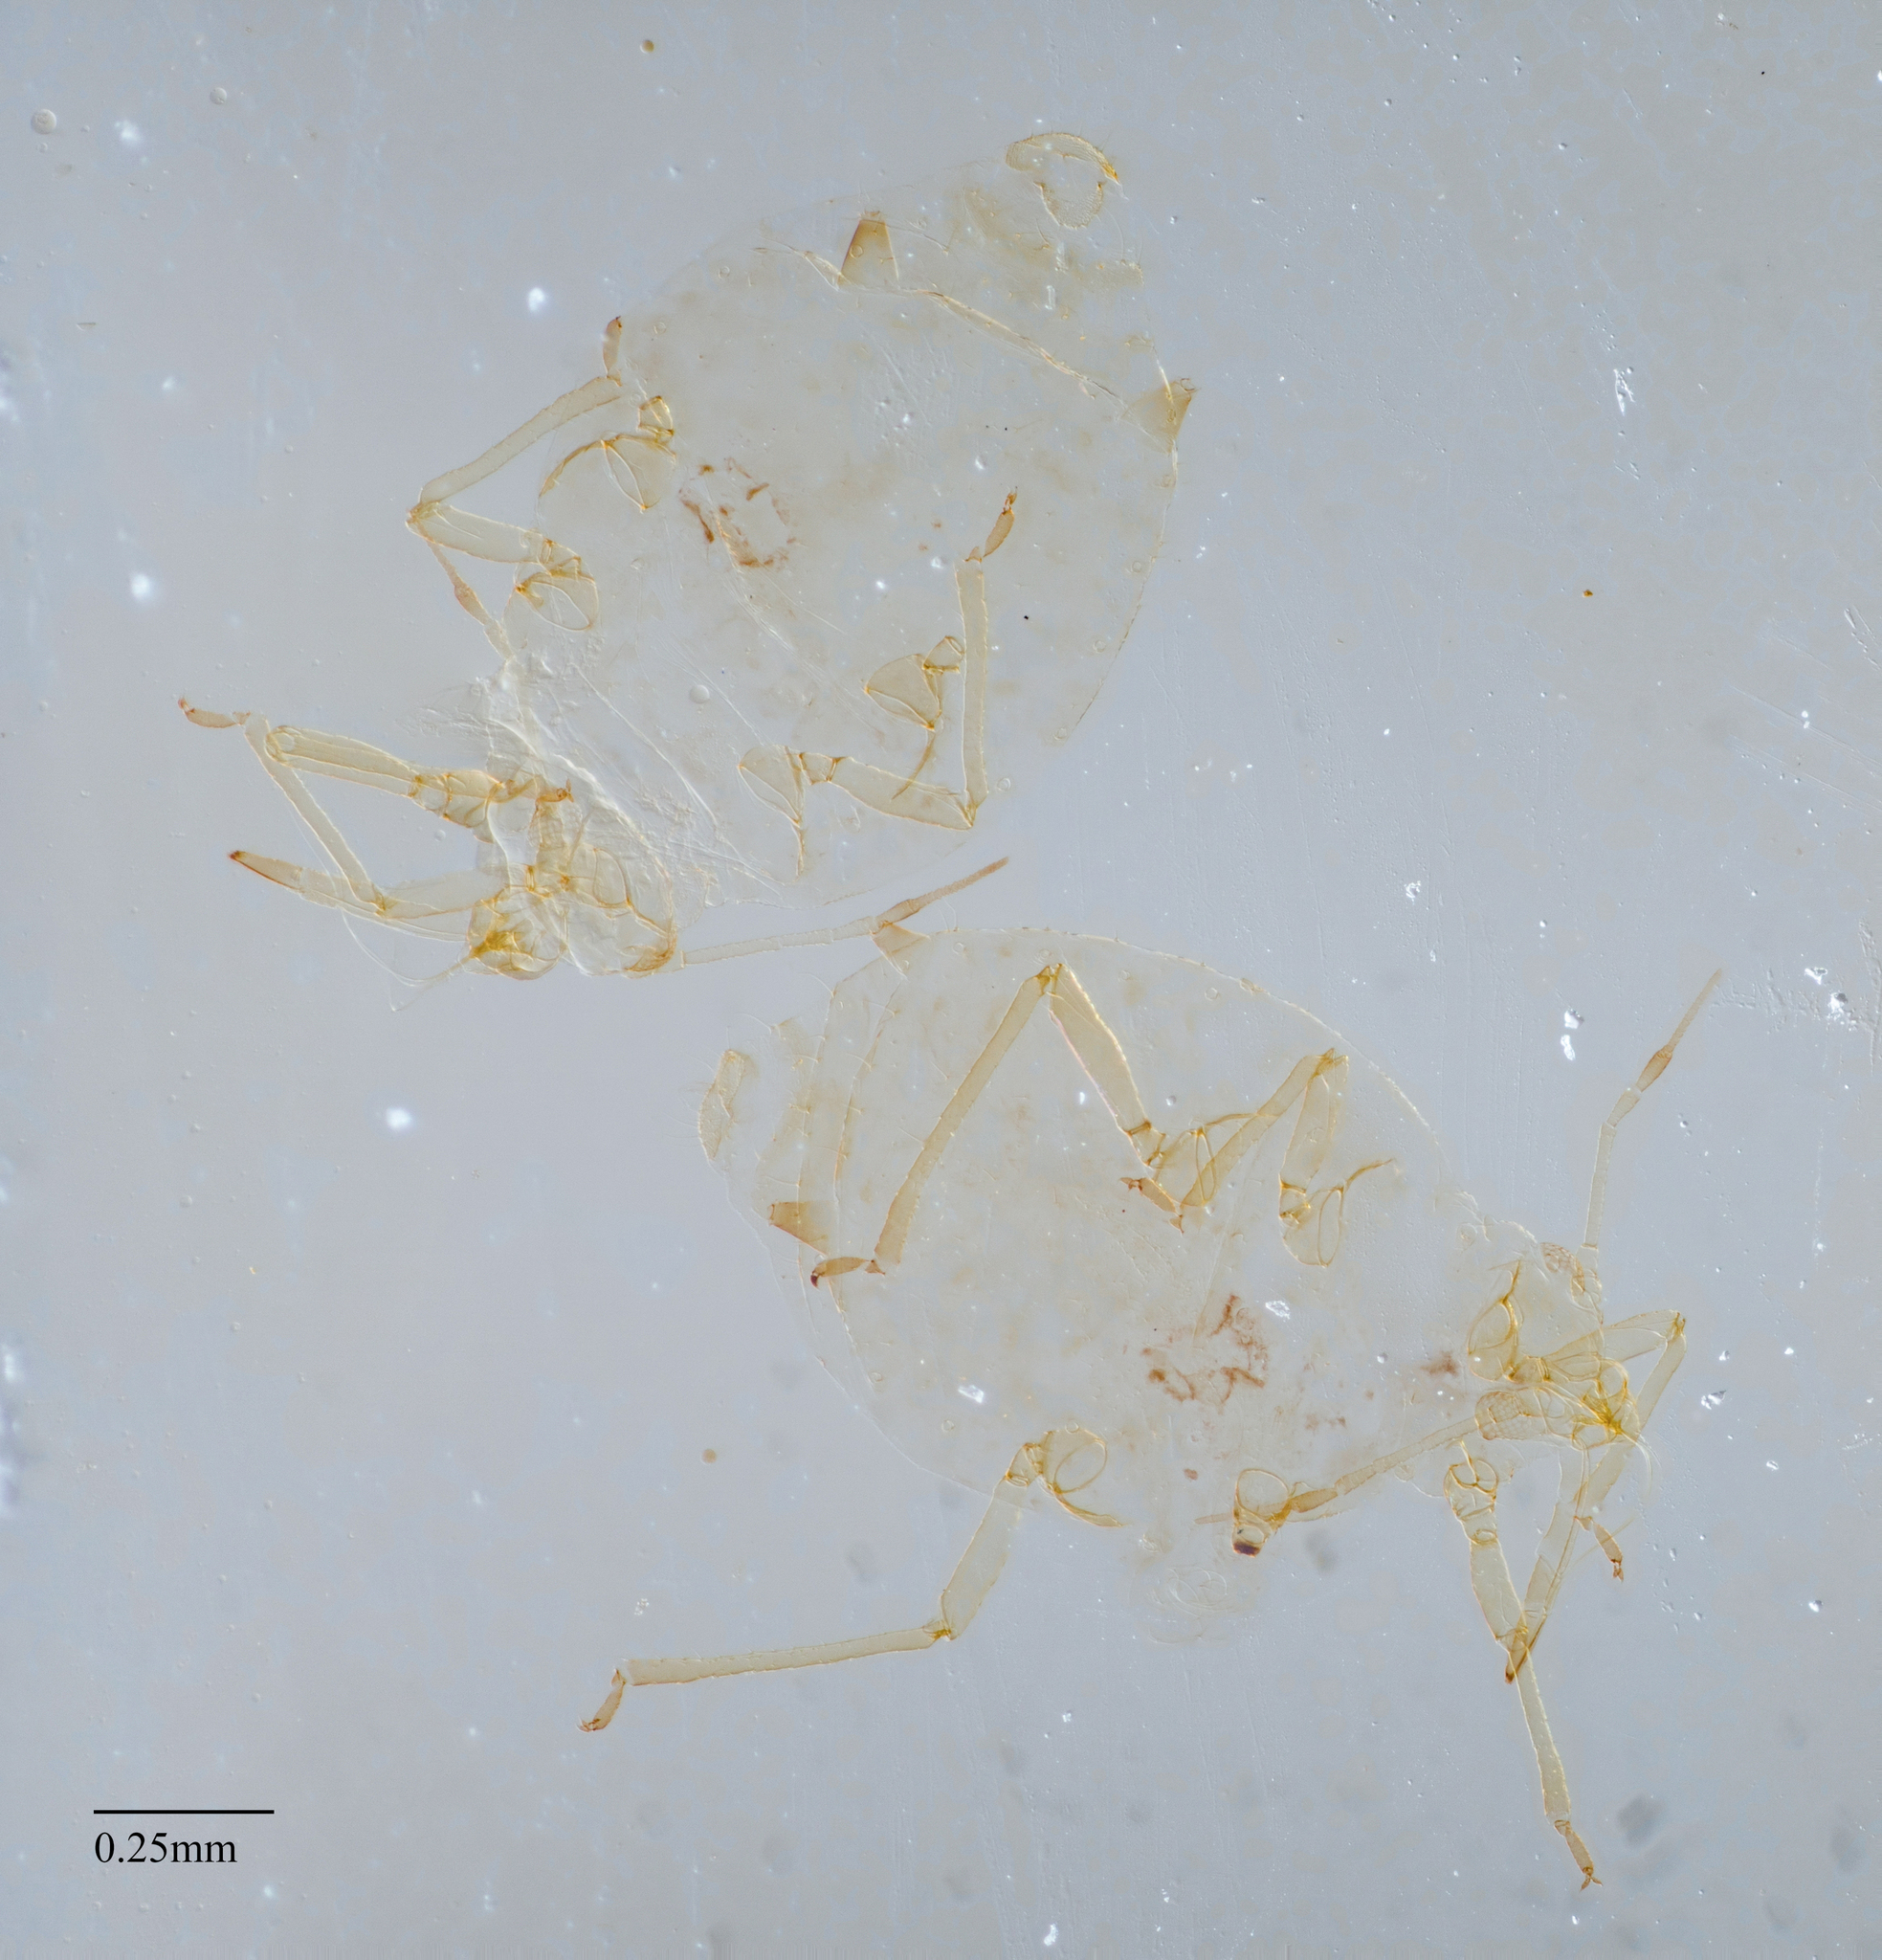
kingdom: Animalia
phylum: Arthropoda
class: Insecta
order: Hemiptera
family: Aphididae
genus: Hyalopterus
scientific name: Hyalopterus pruni
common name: Mealy plum aphid
